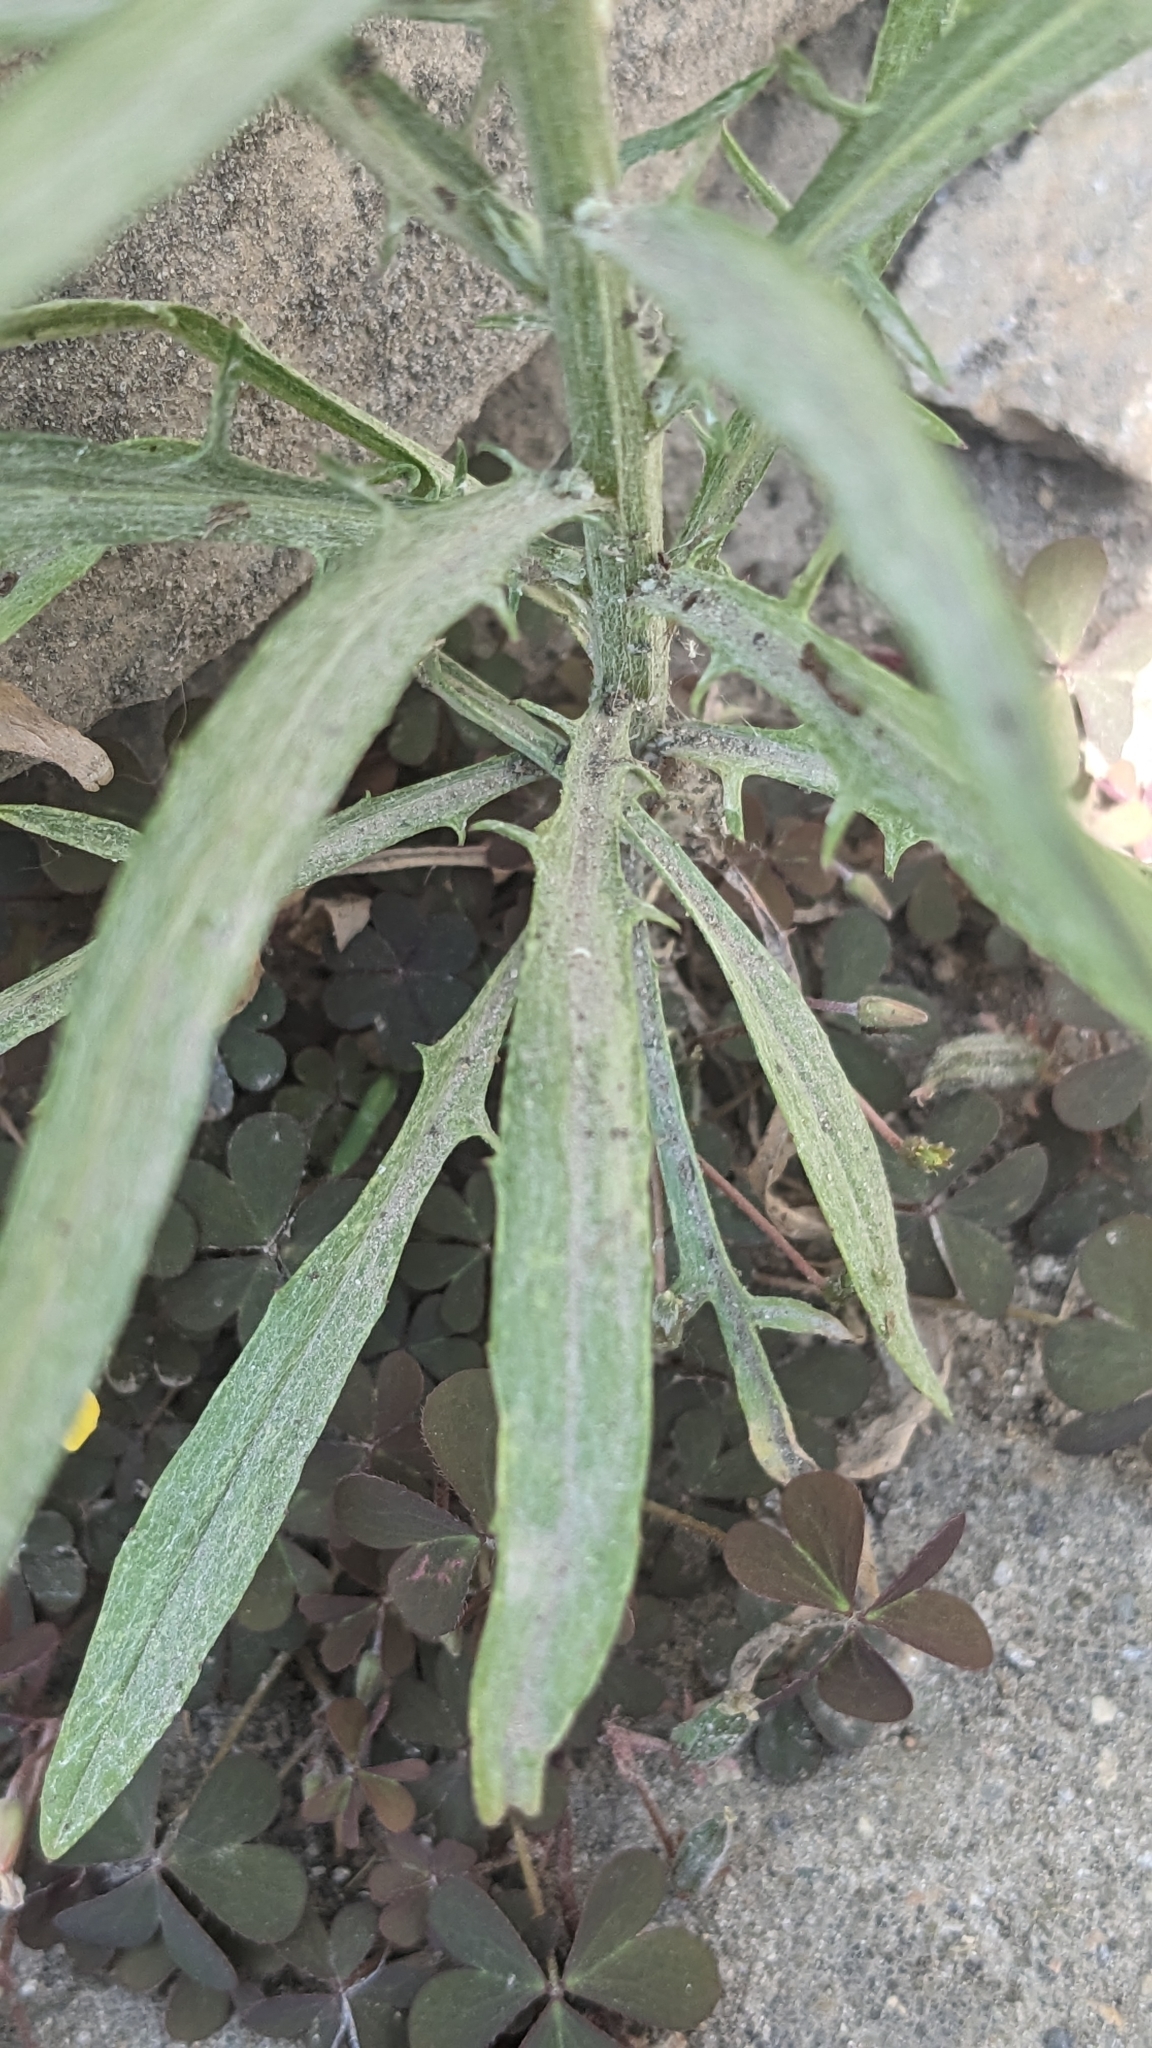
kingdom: Plantae
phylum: Tracheophyta
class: Magnoliopsida
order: Asterales
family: Asteraceae
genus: Centaurea
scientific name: Centaurea cyanus
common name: Cornflower
